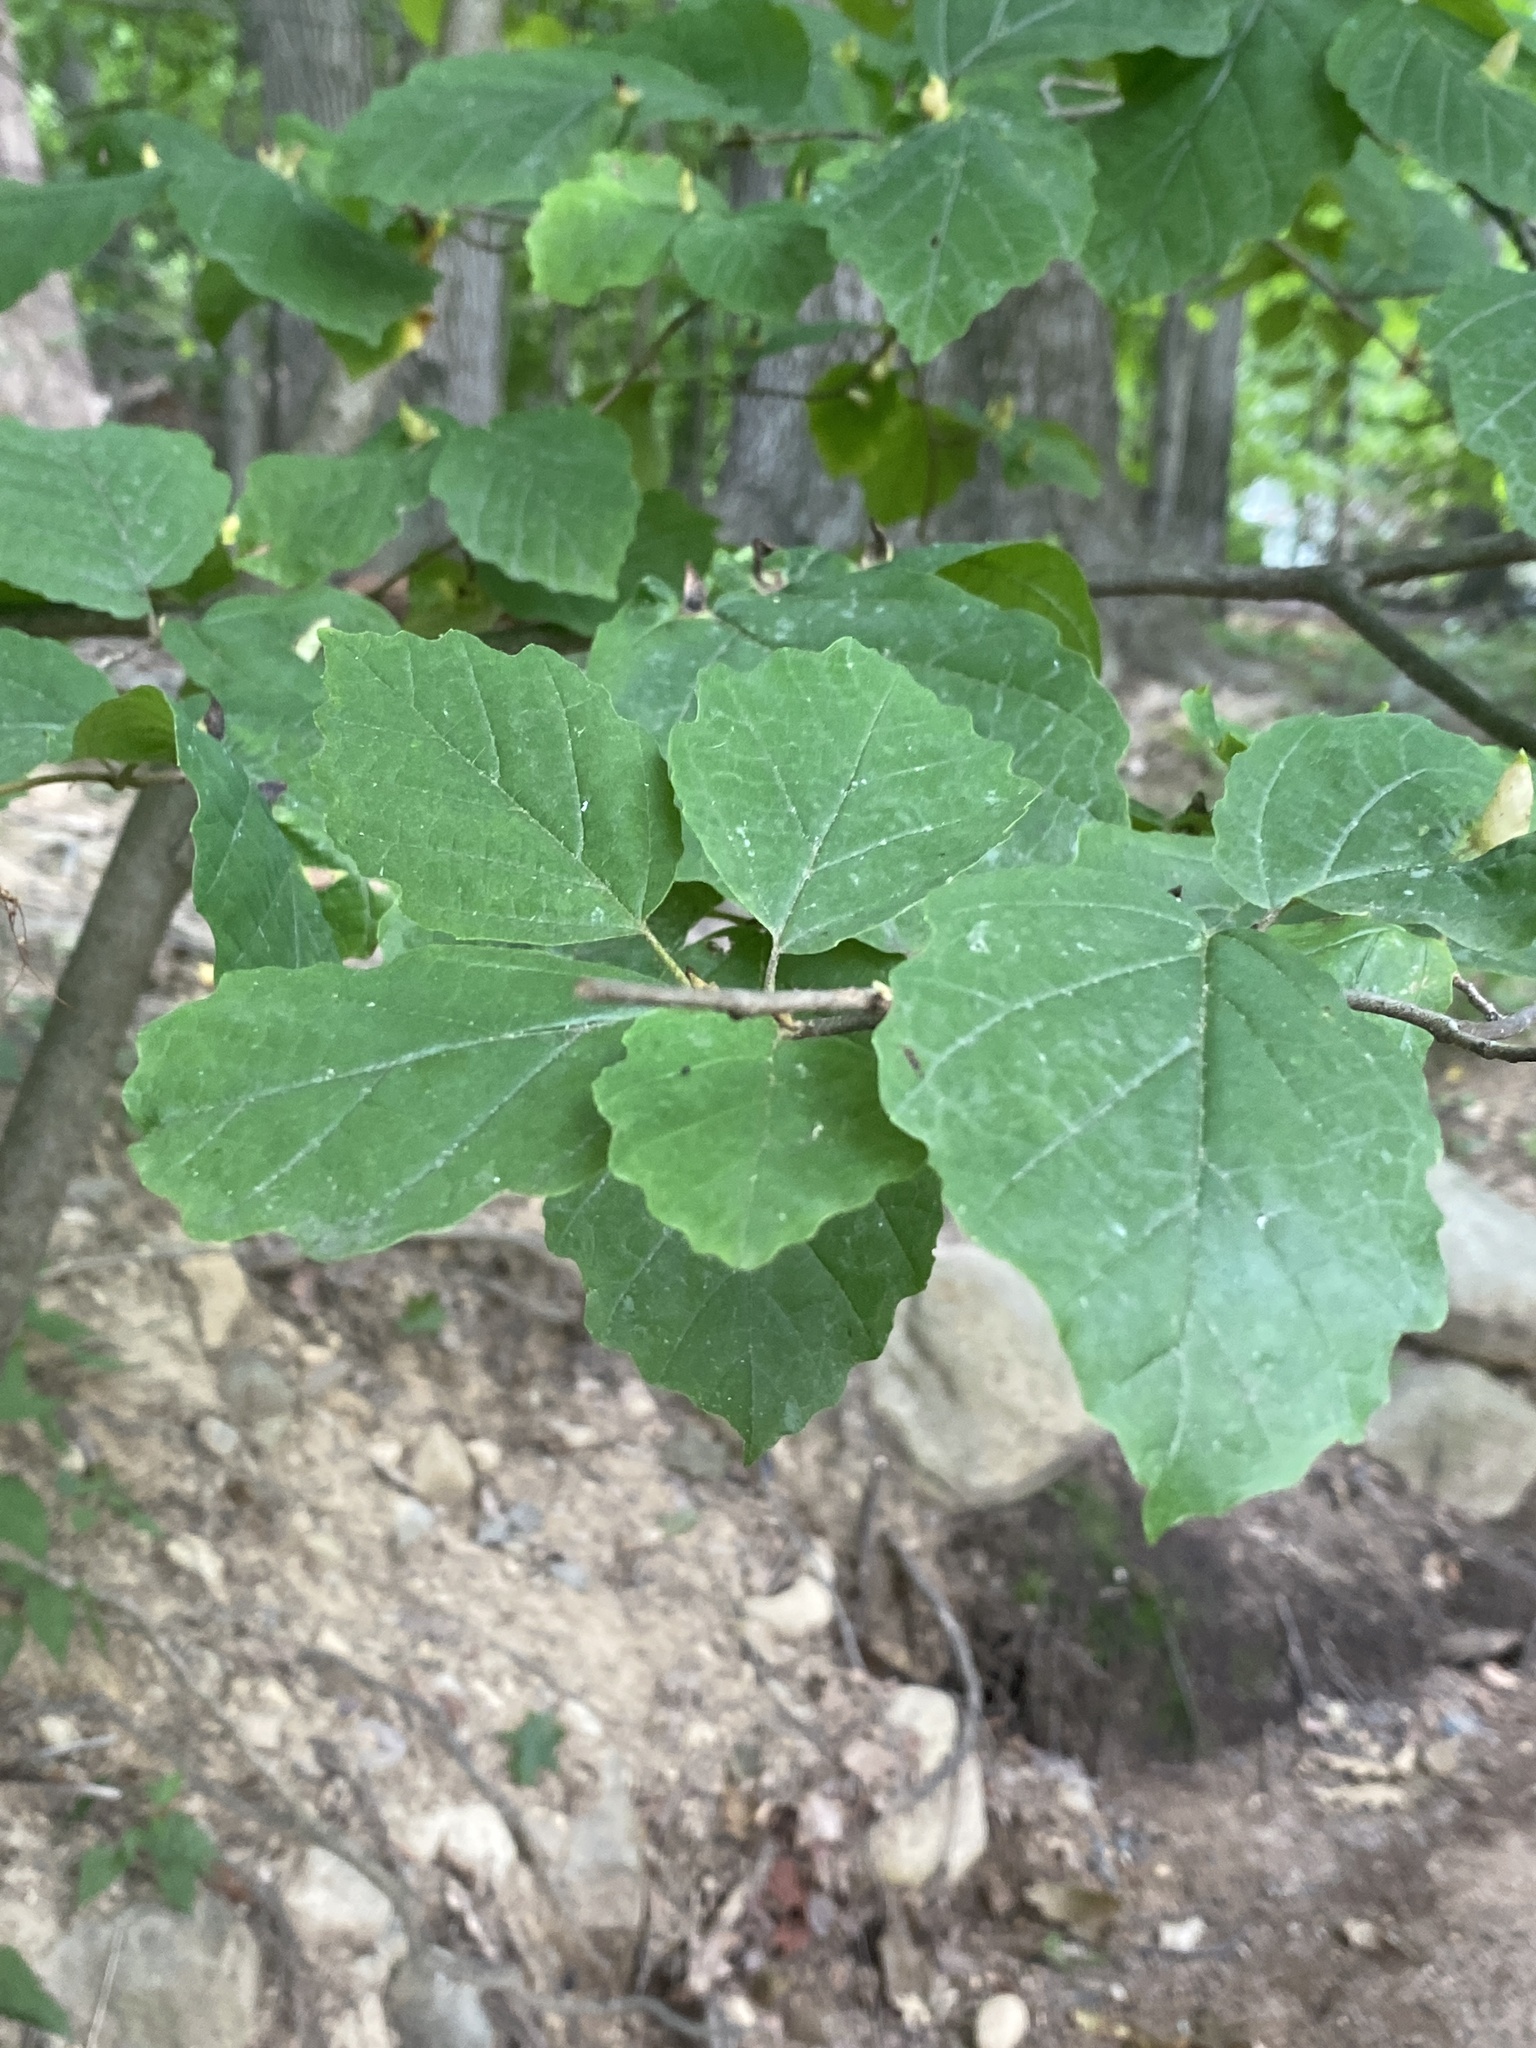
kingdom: Plantae
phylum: Tracheophyta
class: Magnoliopsida
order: Saxifragales
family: Hamamelidaceae
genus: Hamamelis
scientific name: Hamamelis virginiana
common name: Witch-hazel
